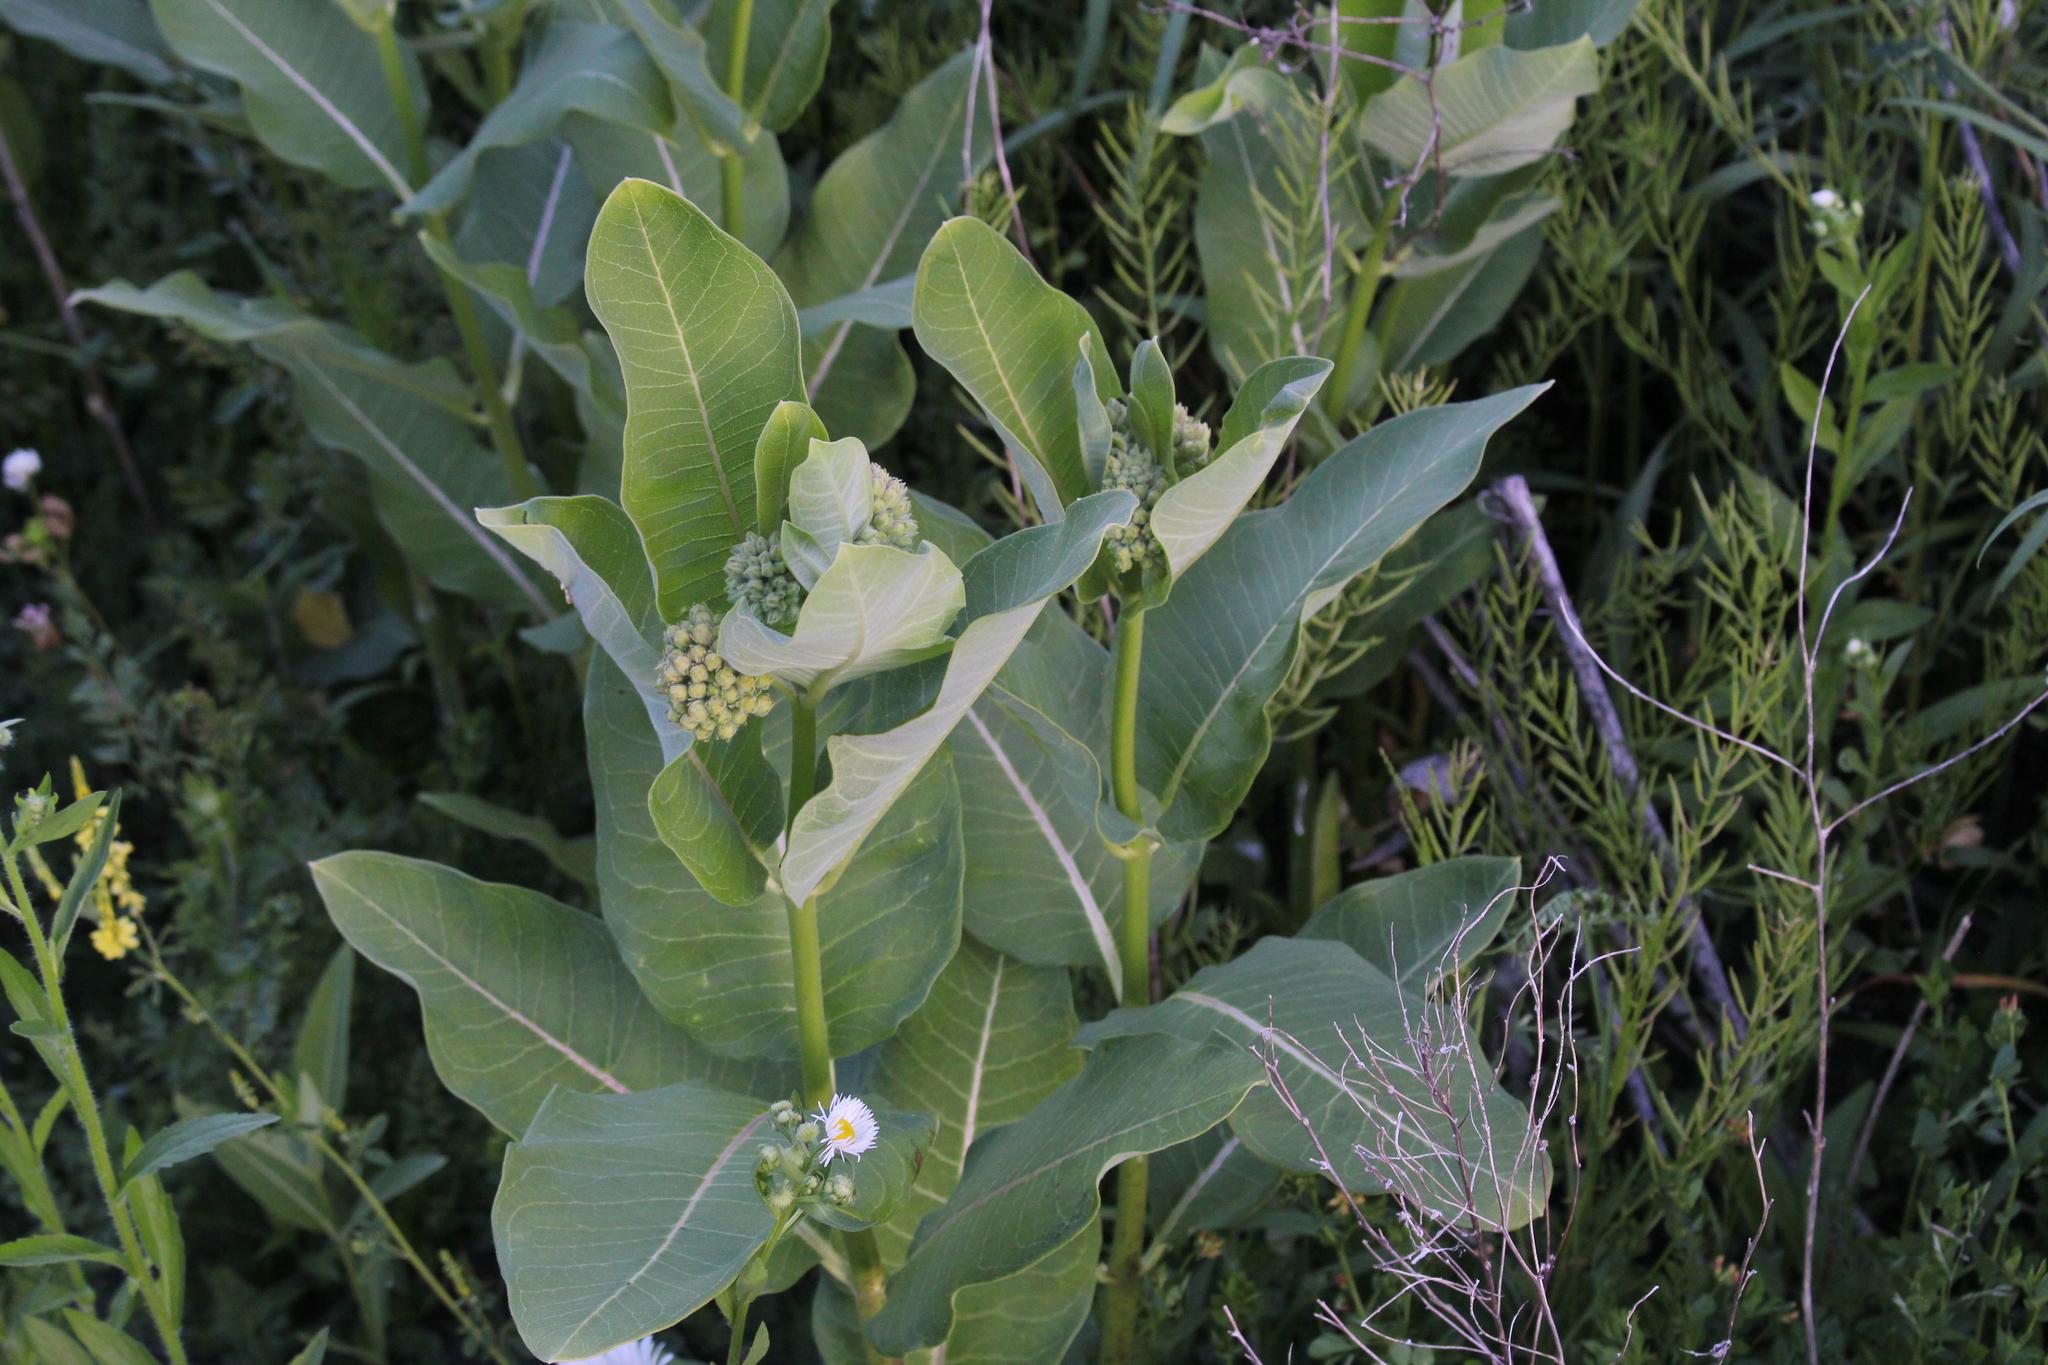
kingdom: Plantae
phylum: Tracheophyta
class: Magnoliopsida
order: Gentianales
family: Apocynaceae
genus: Asclepias
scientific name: Asclepias syriaca
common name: Common milkweed
